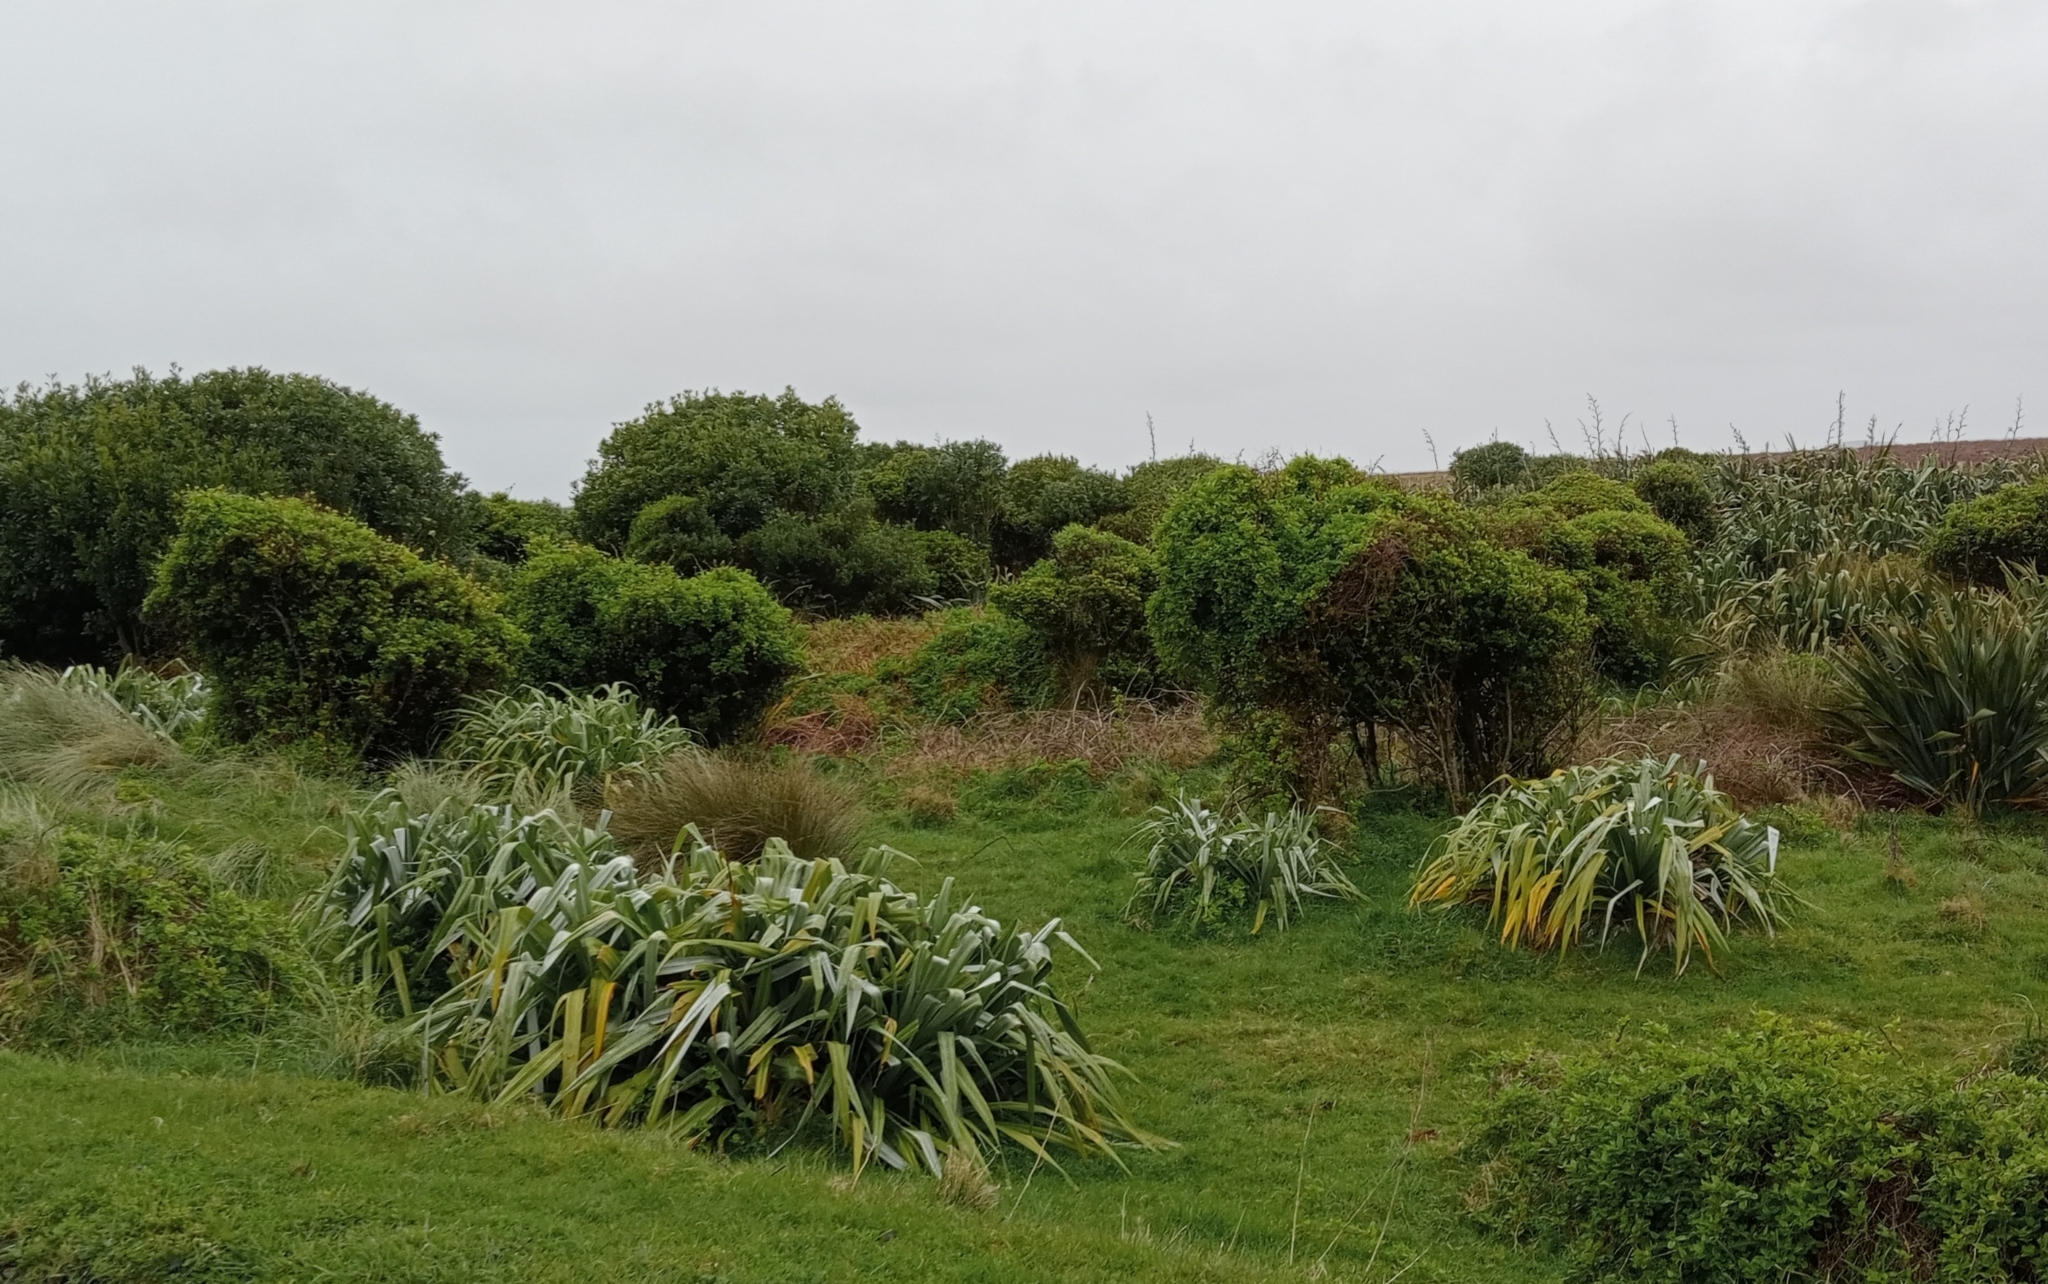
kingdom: Plantae
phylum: Tracheophyta
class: Liliopsida
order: Asparagales
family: Asteliaceae
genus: Astelia
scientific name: Astelia chathamica
